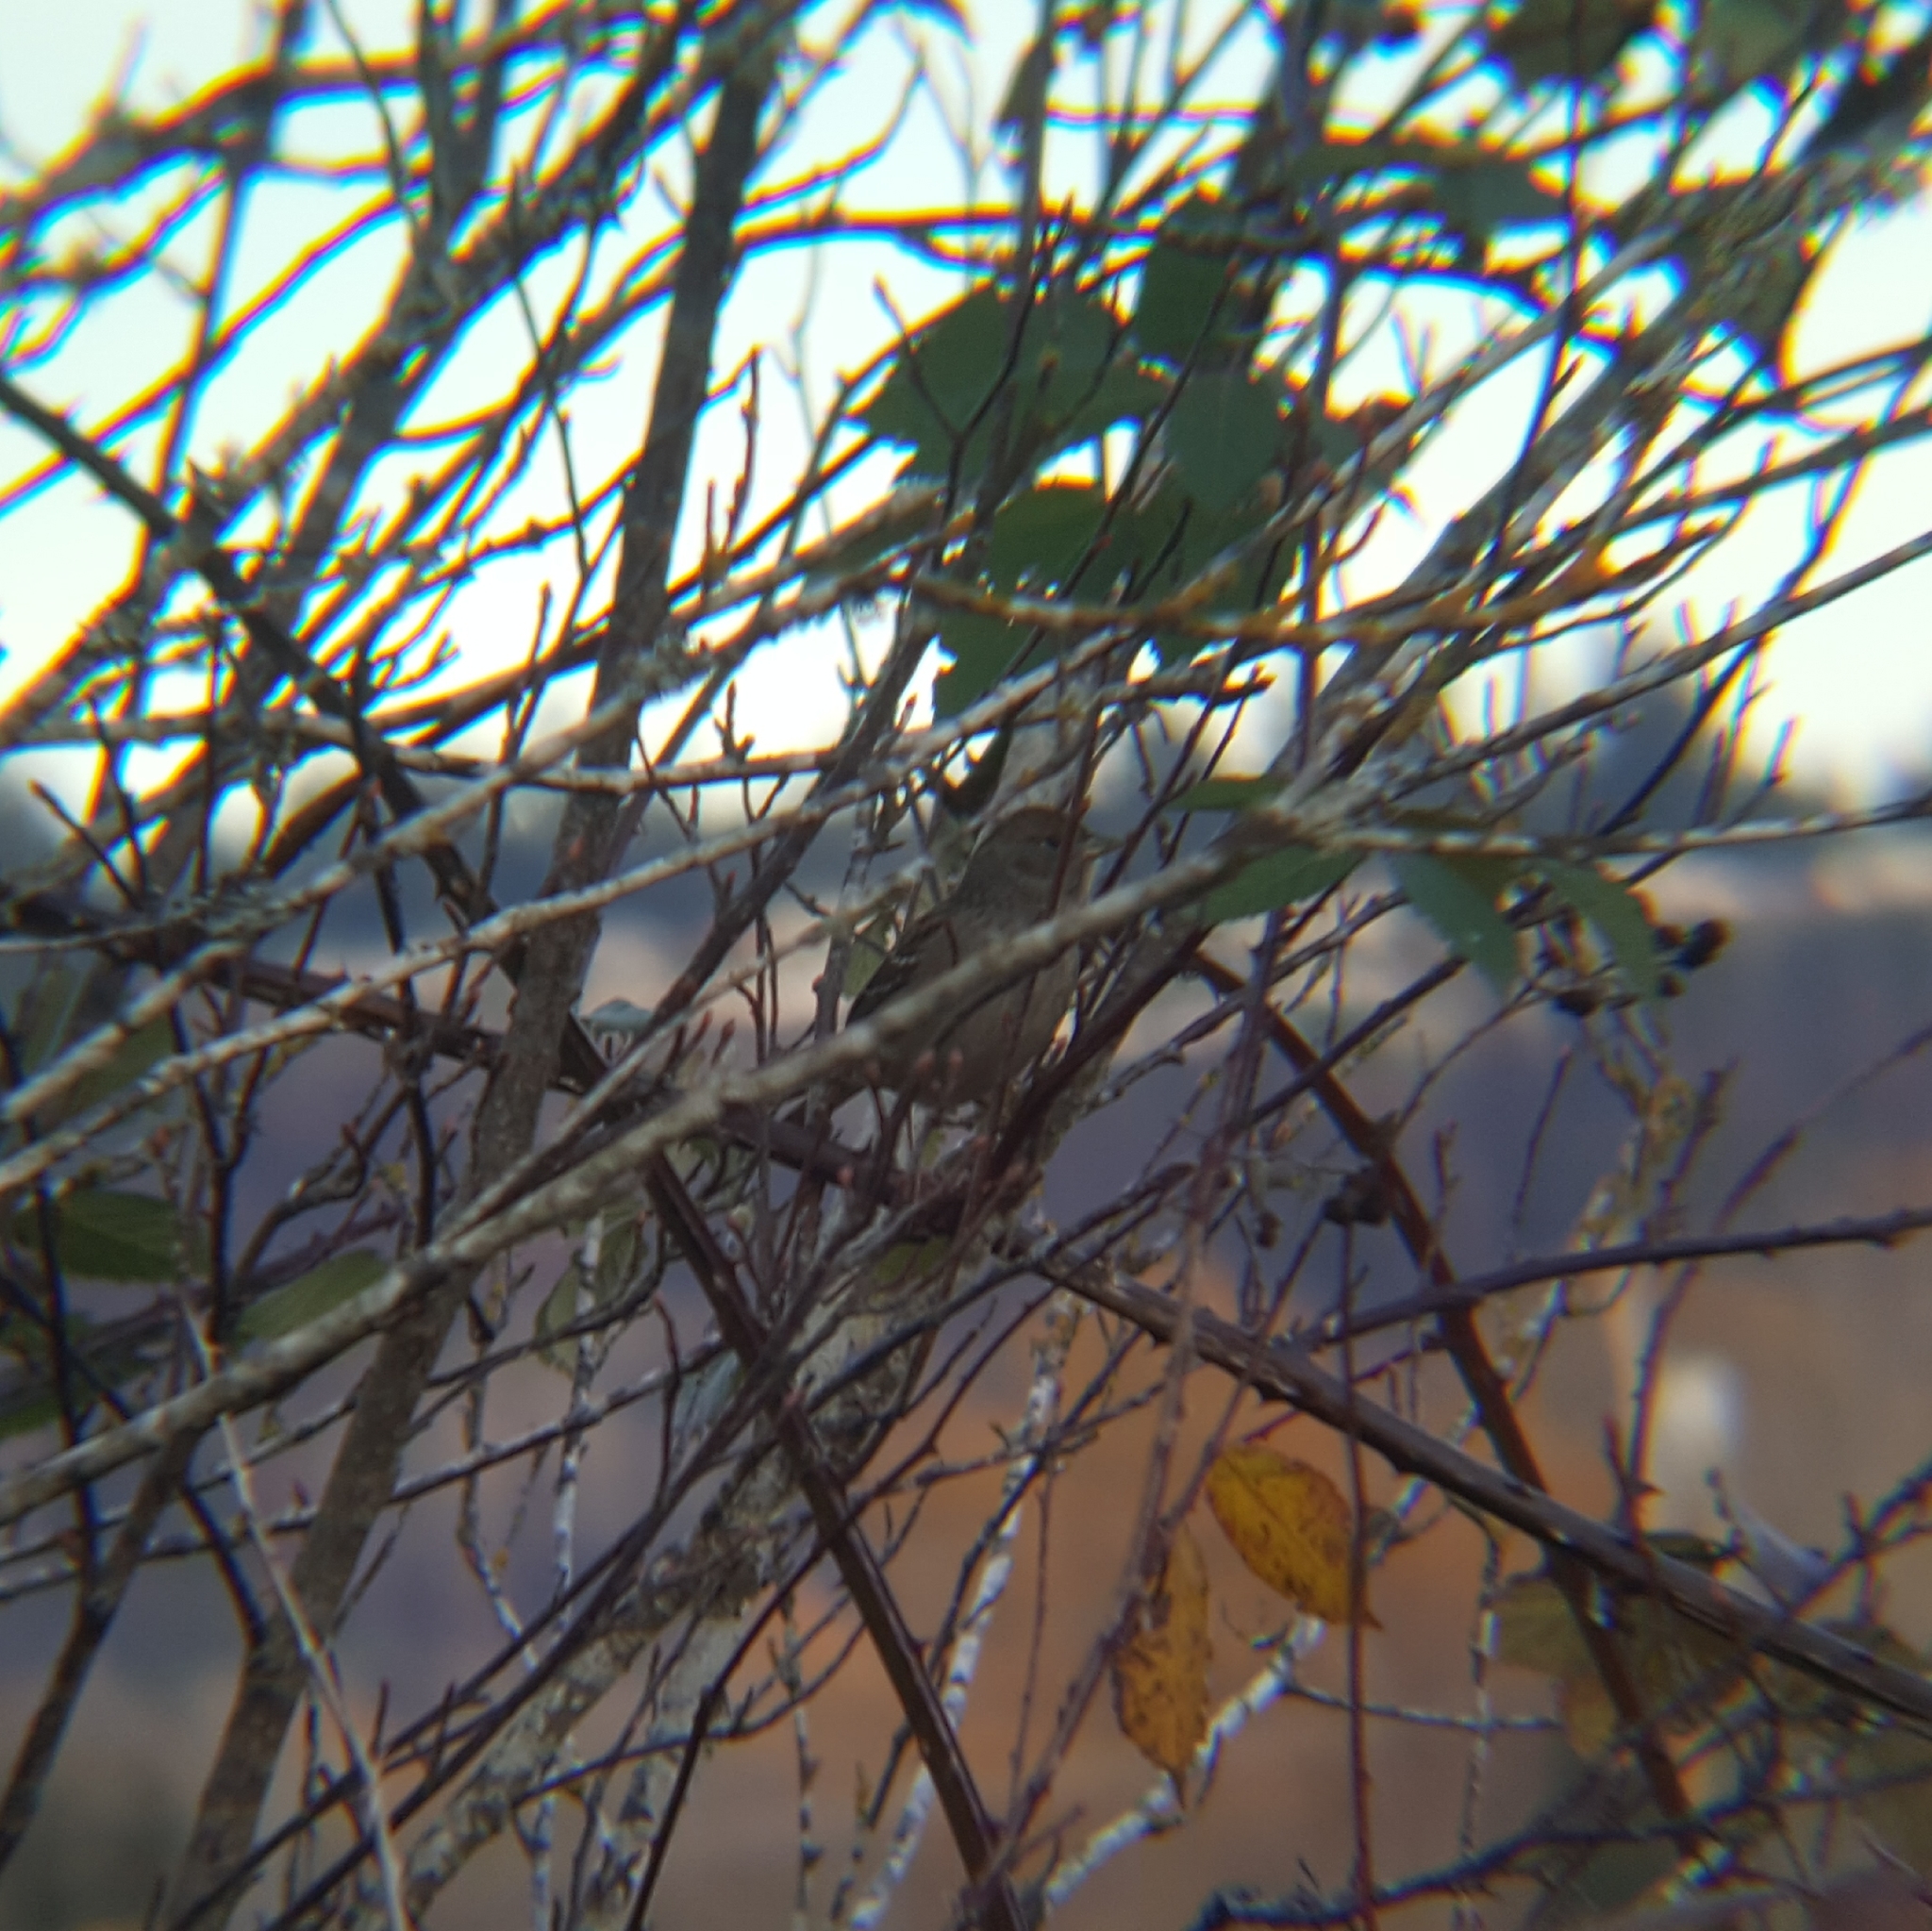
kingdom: Animalia
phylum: Chordata
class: Aves
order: Passeriformes
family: Passerellidae
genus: Zonotrichia
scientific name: Zonotrichia atricapilla
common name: Golden-crowned sparrow
